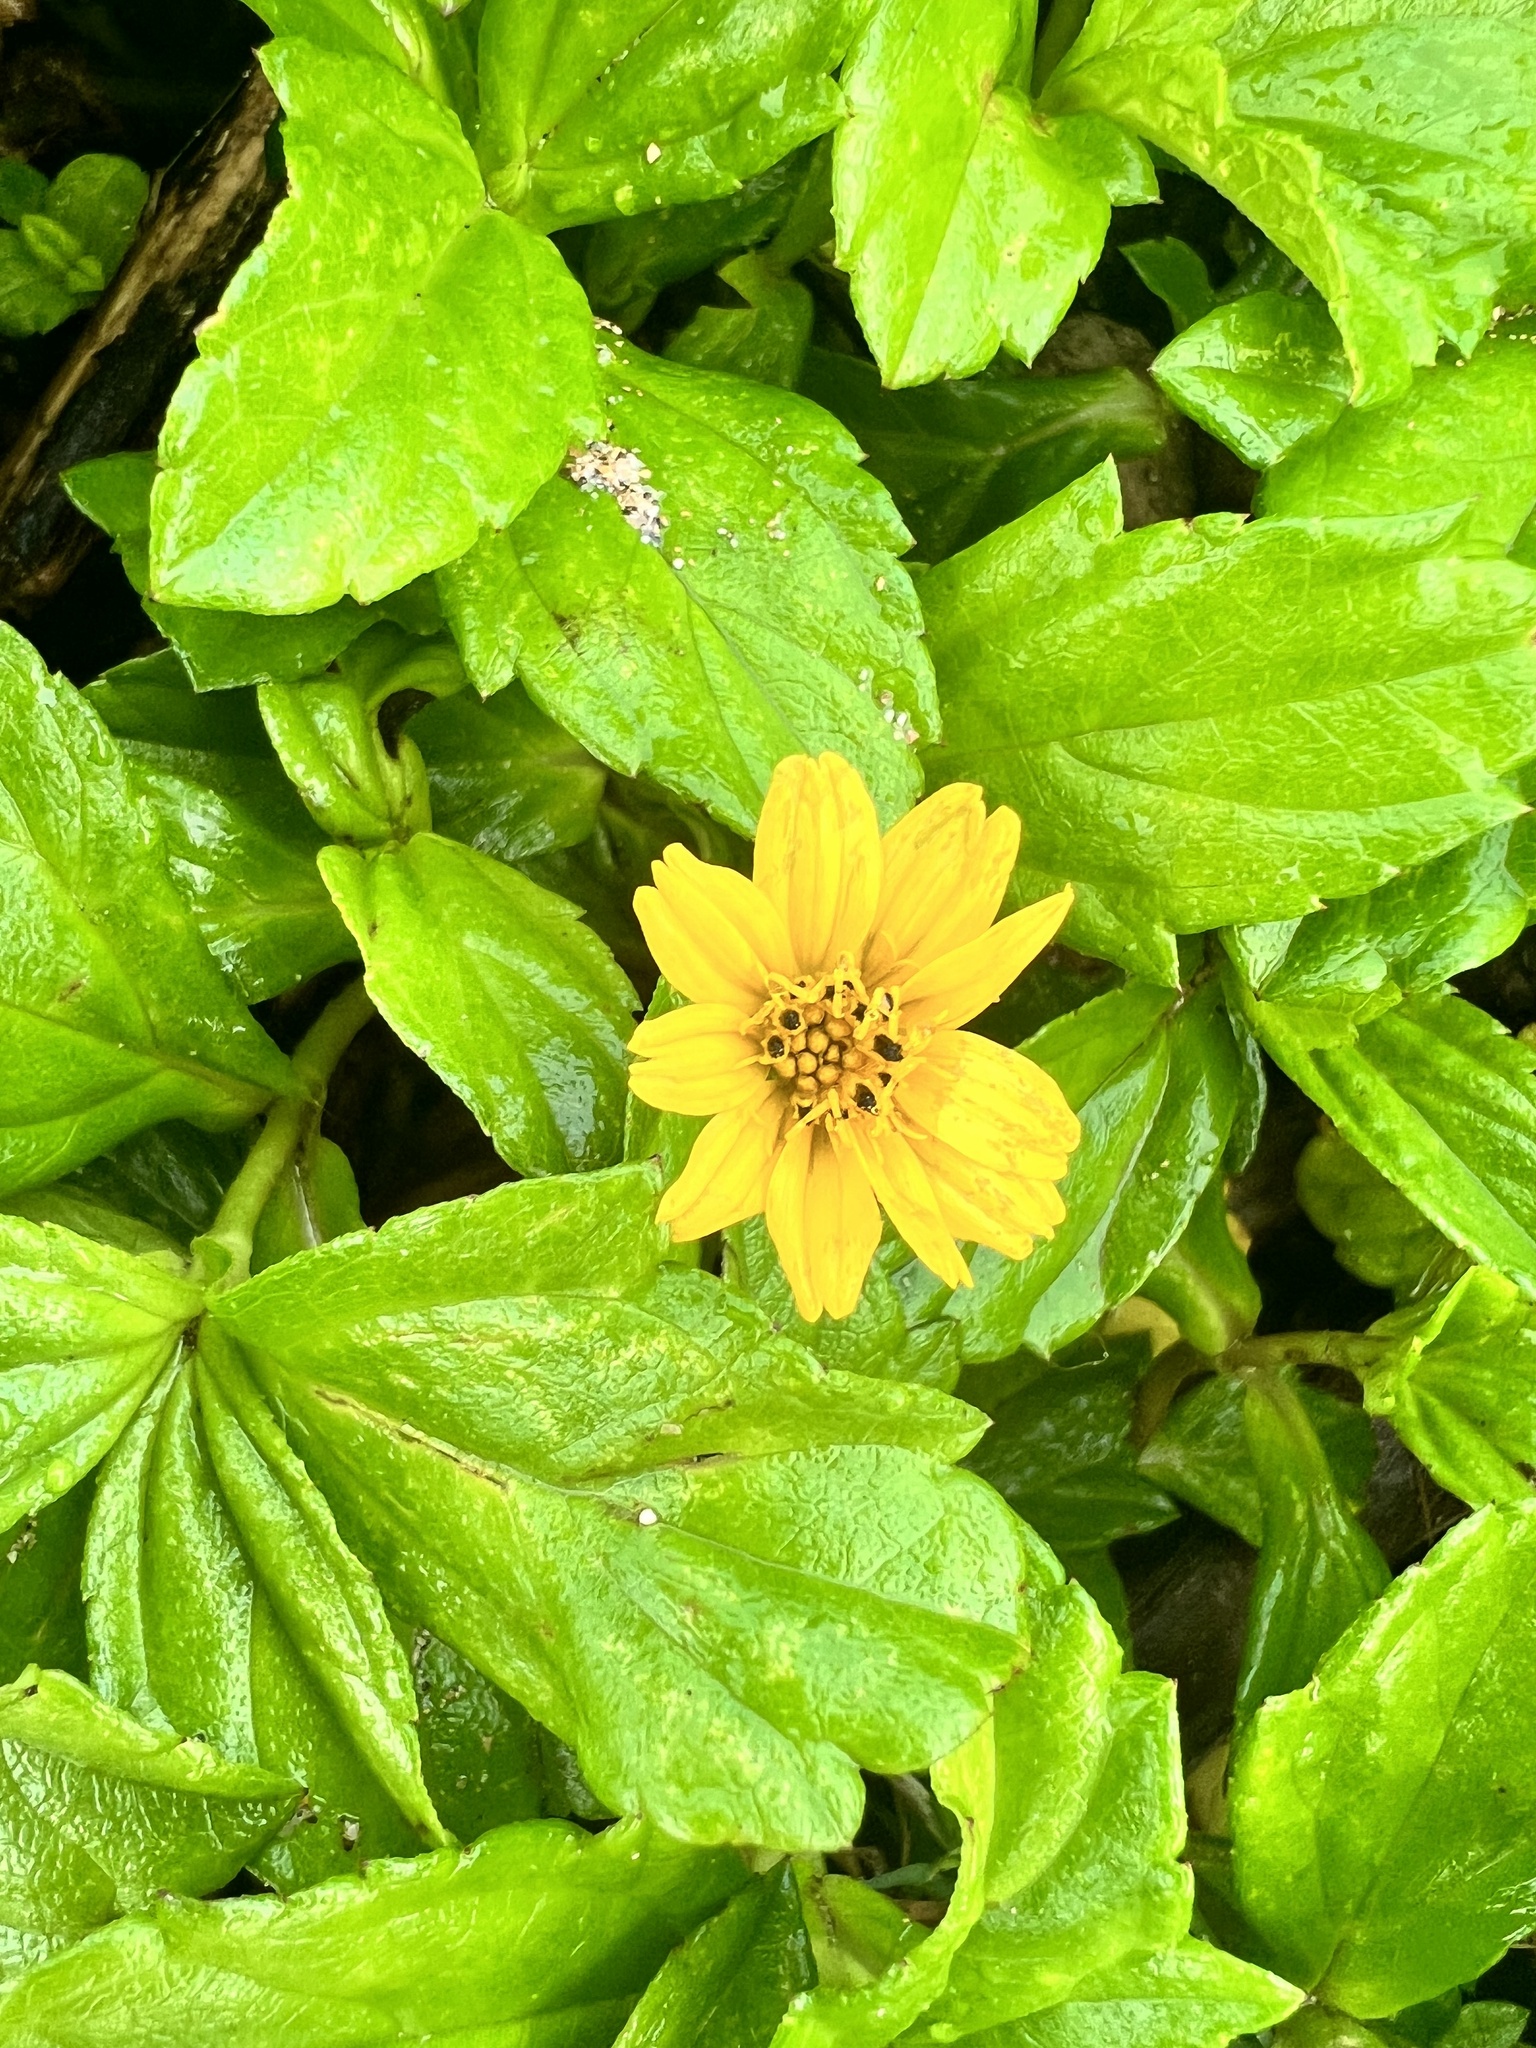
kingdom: Plantae
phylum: Tracheophyta
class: Magnoliopsida
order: Asterales
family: Asteraceae
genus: Sphagneticola
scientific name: Sphagneticola trilobata
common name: Bay biscayne creeping-oxeye
